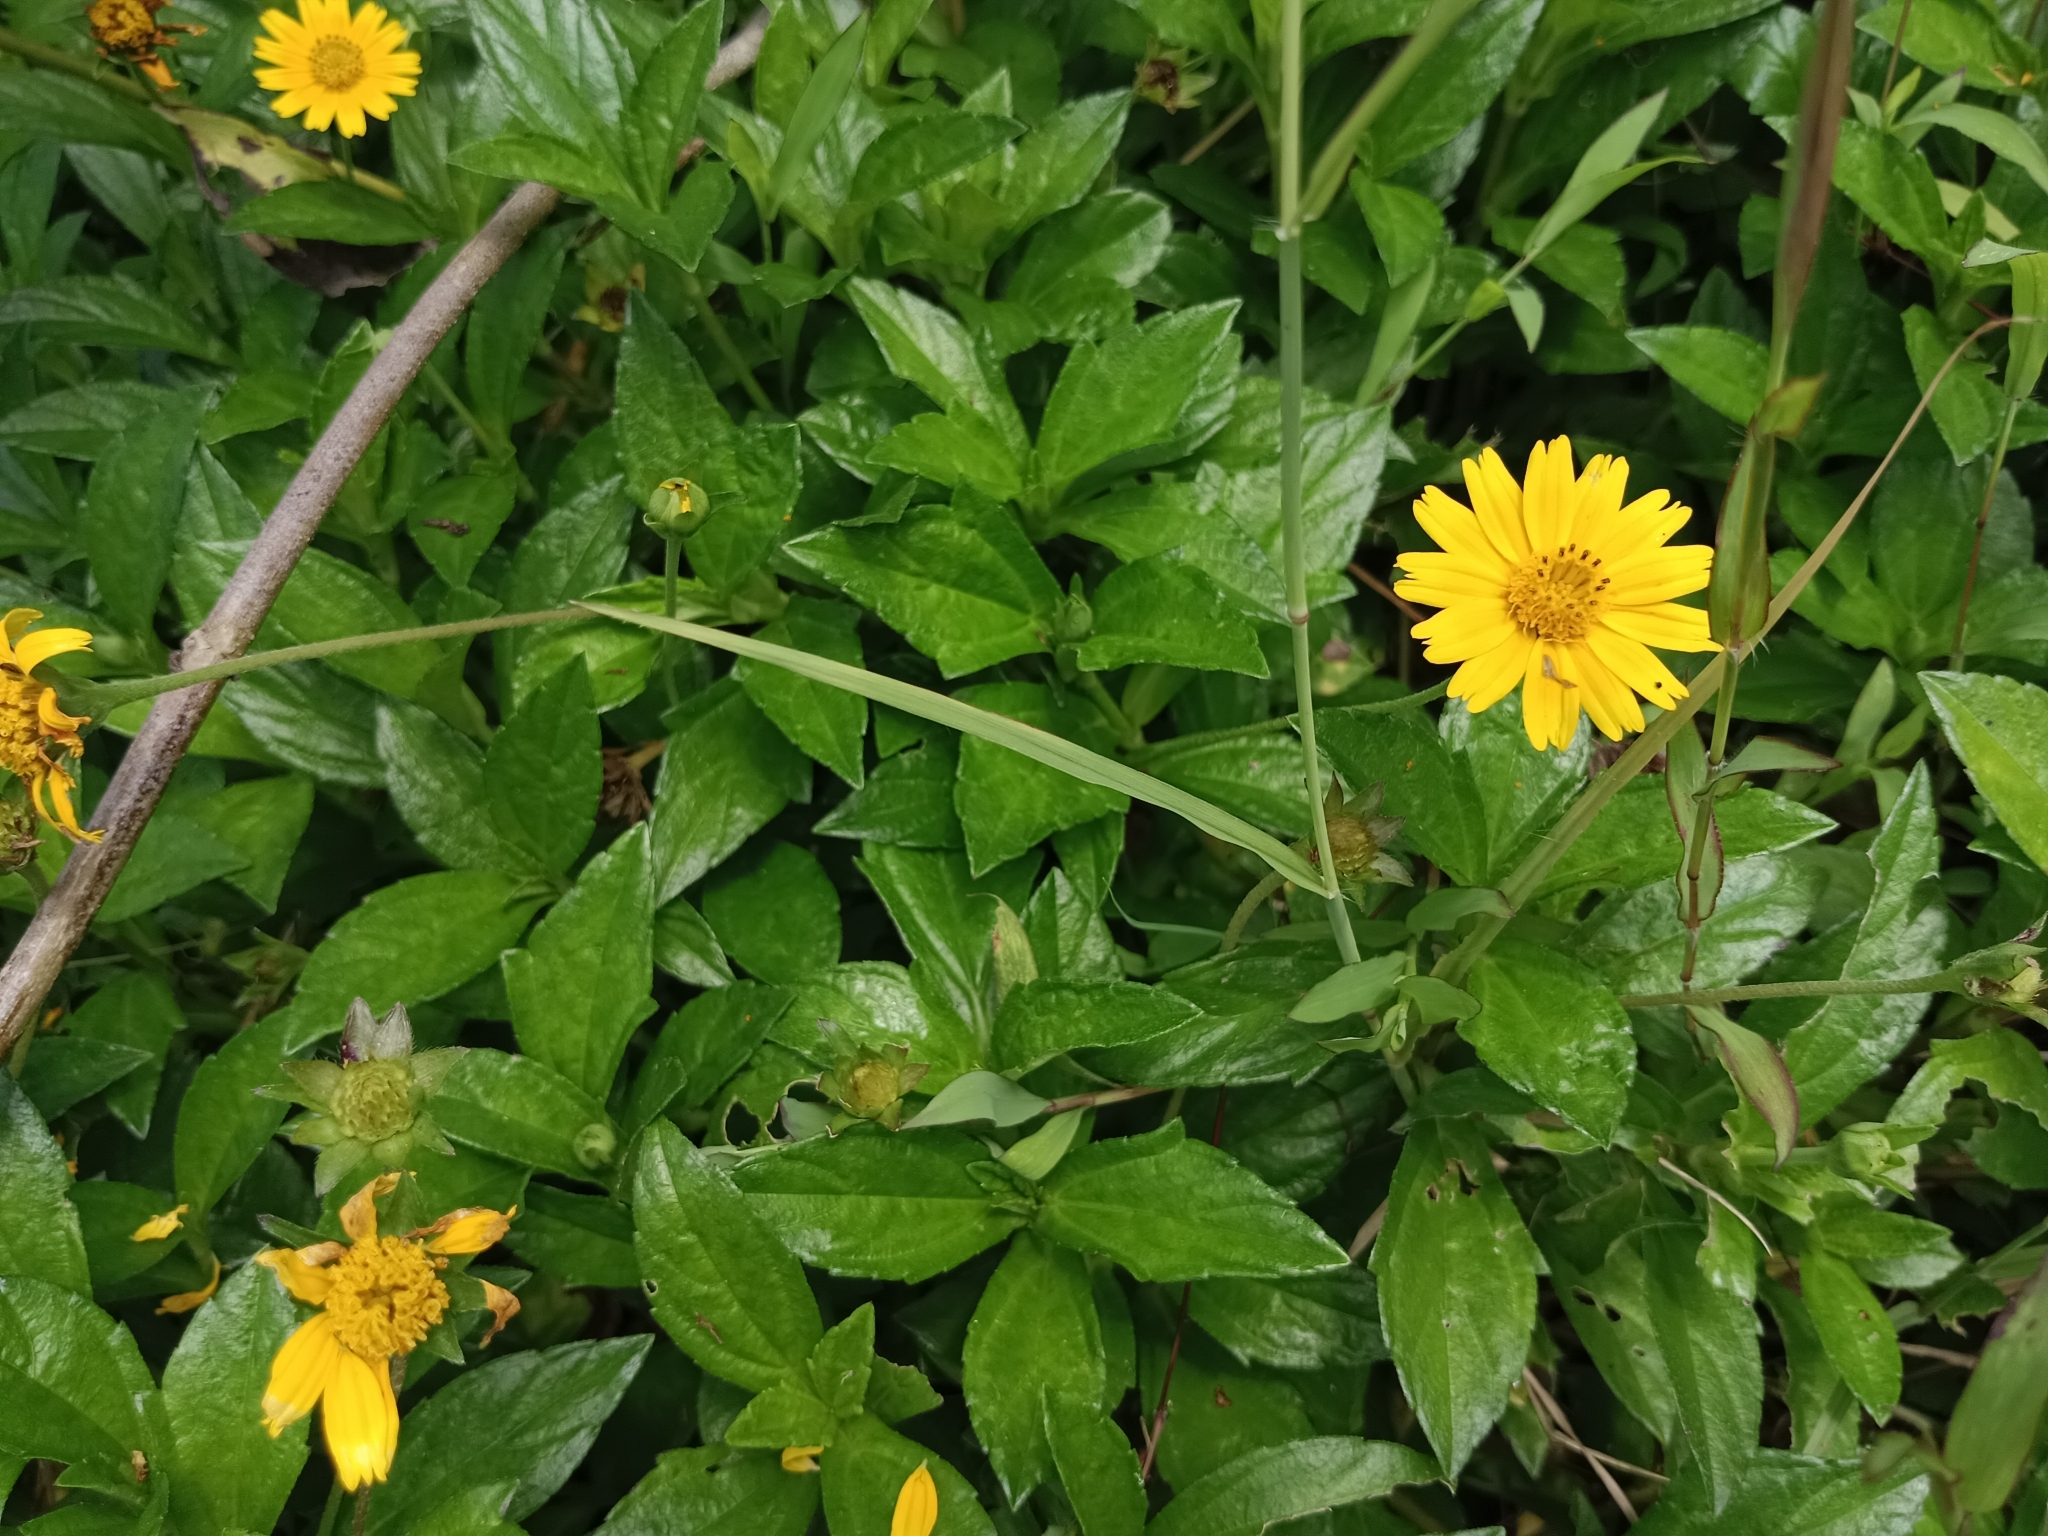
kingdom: Plantae
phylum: Tracheophyta
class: Magnoliopsida
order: Asterales
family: Asteraceae
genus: Sphagneticola
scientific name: Sphagneticola trilobata
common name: Bay biscayne creeping-oxeye
